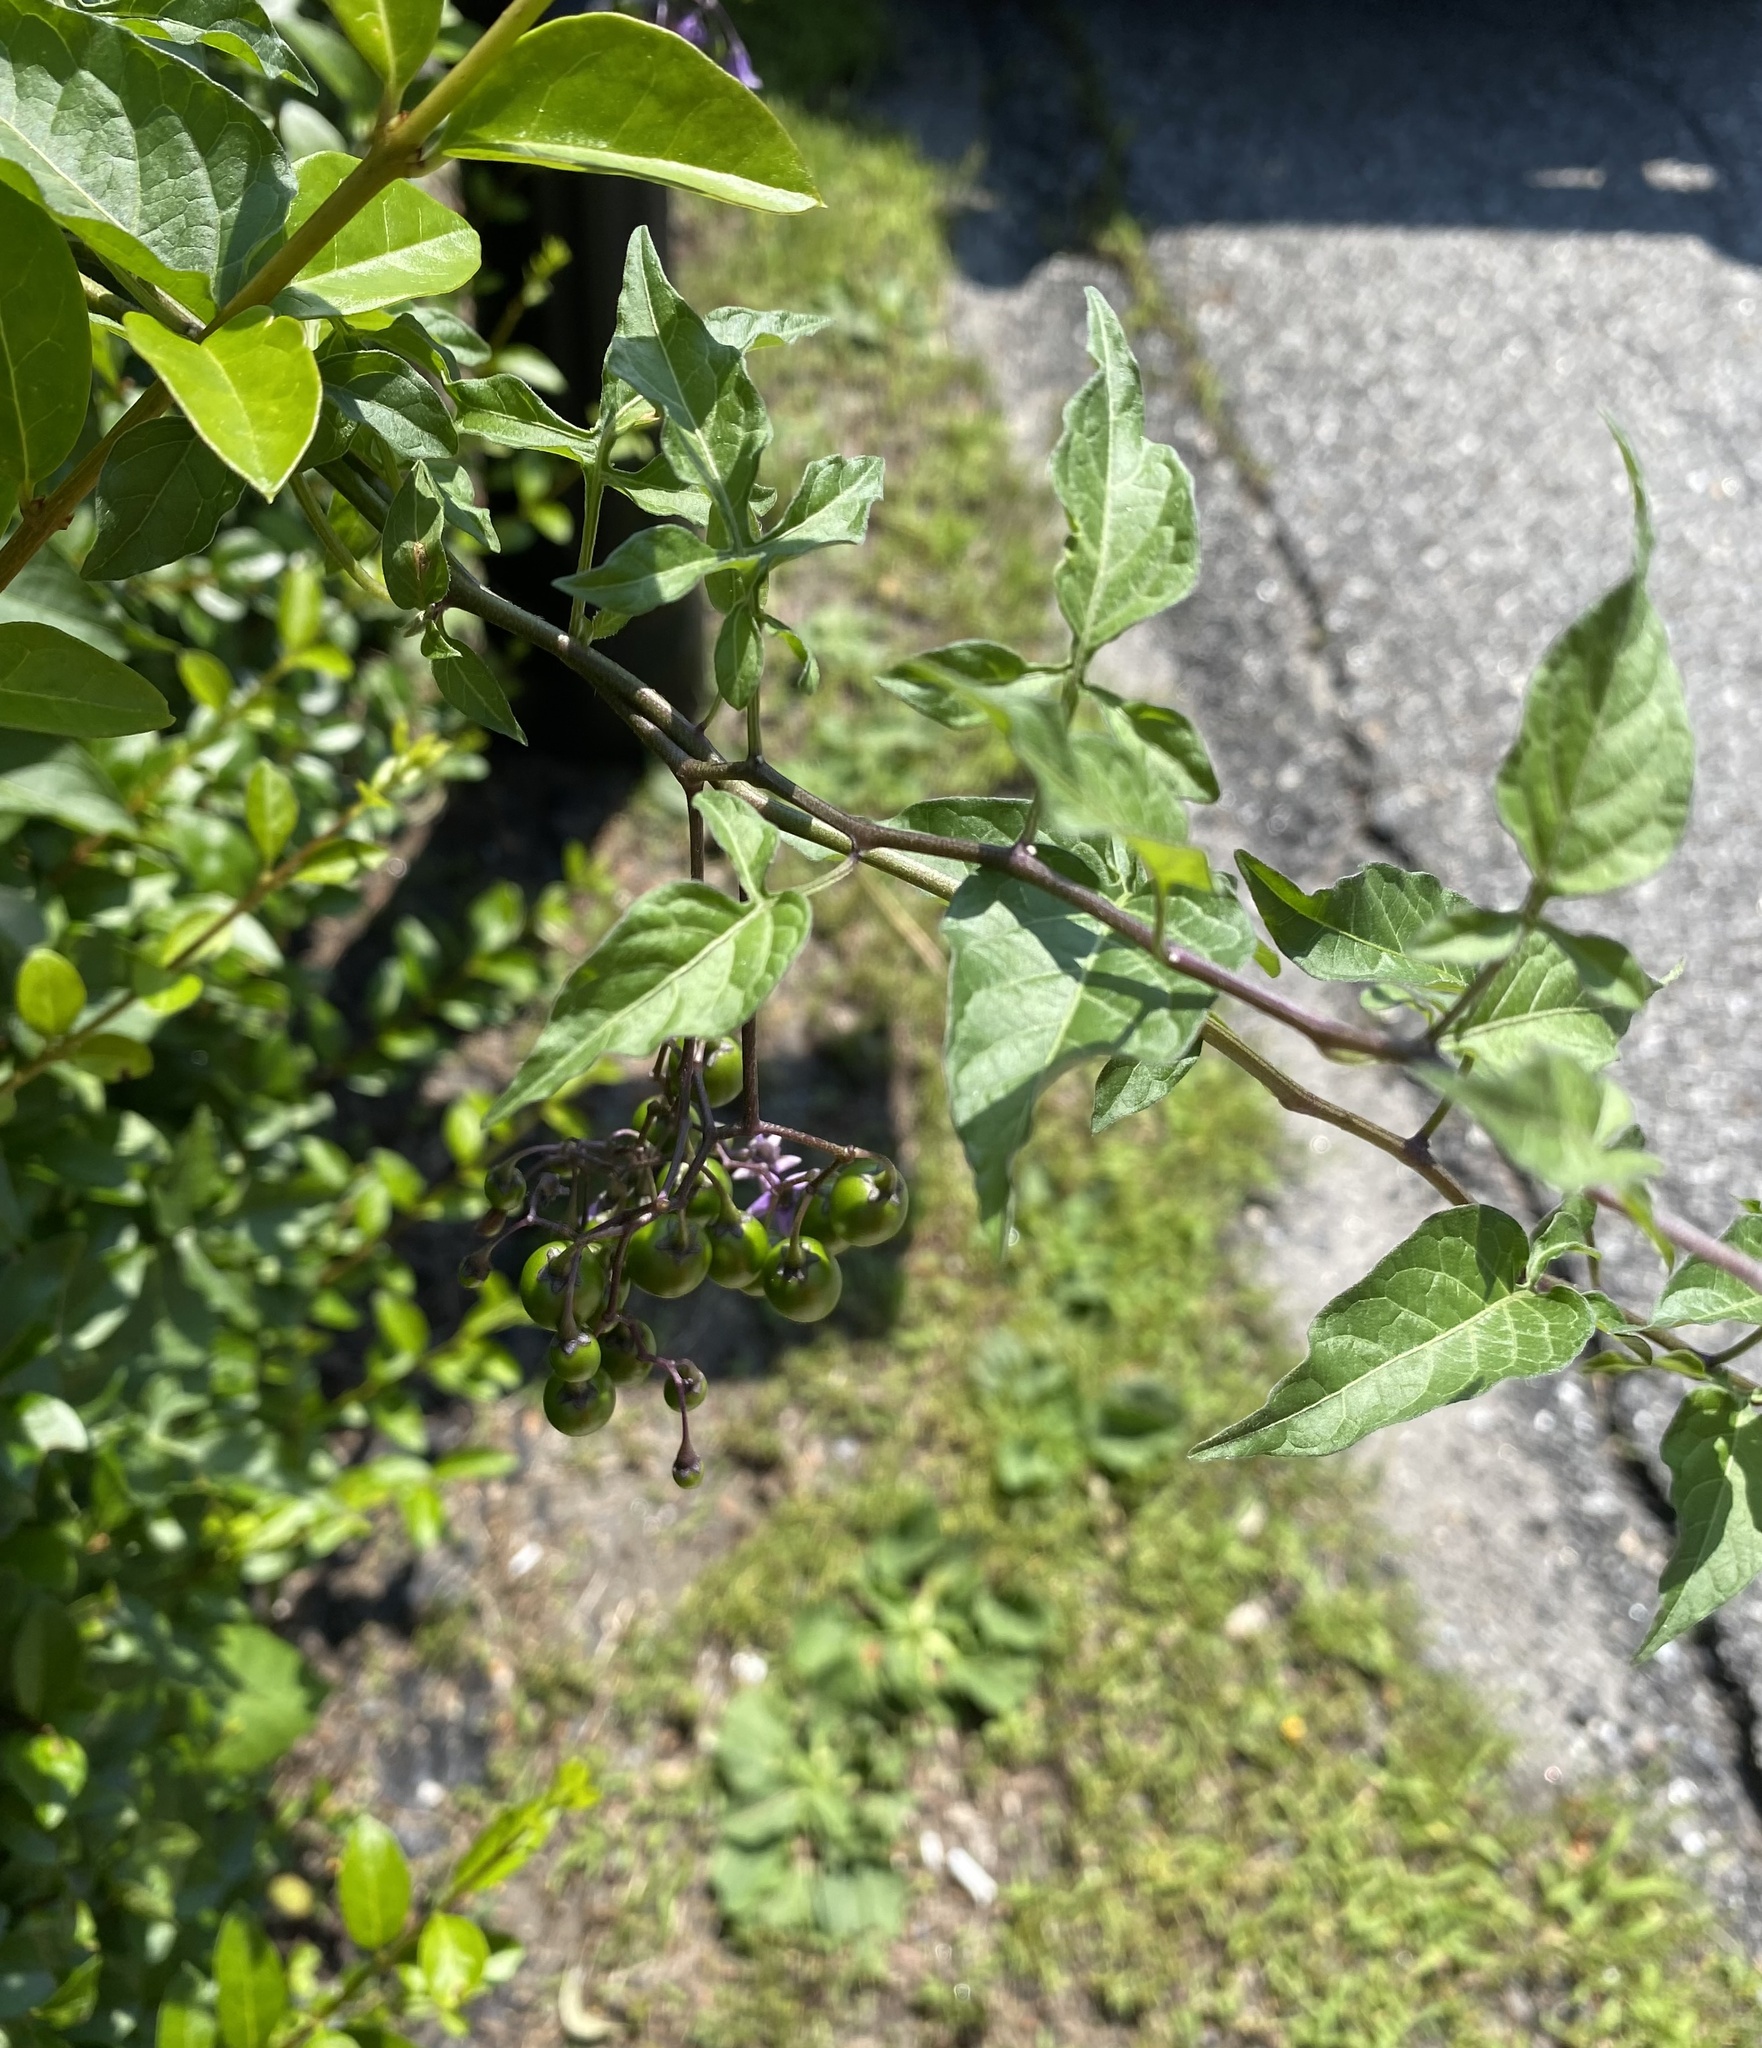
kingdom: Plantae
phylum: Tracheophyta
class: Magnoliopsida
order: Solanales
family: Solanaceae
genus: Solanum
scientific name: Solanum dulcamara
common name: Climbing nightshade
